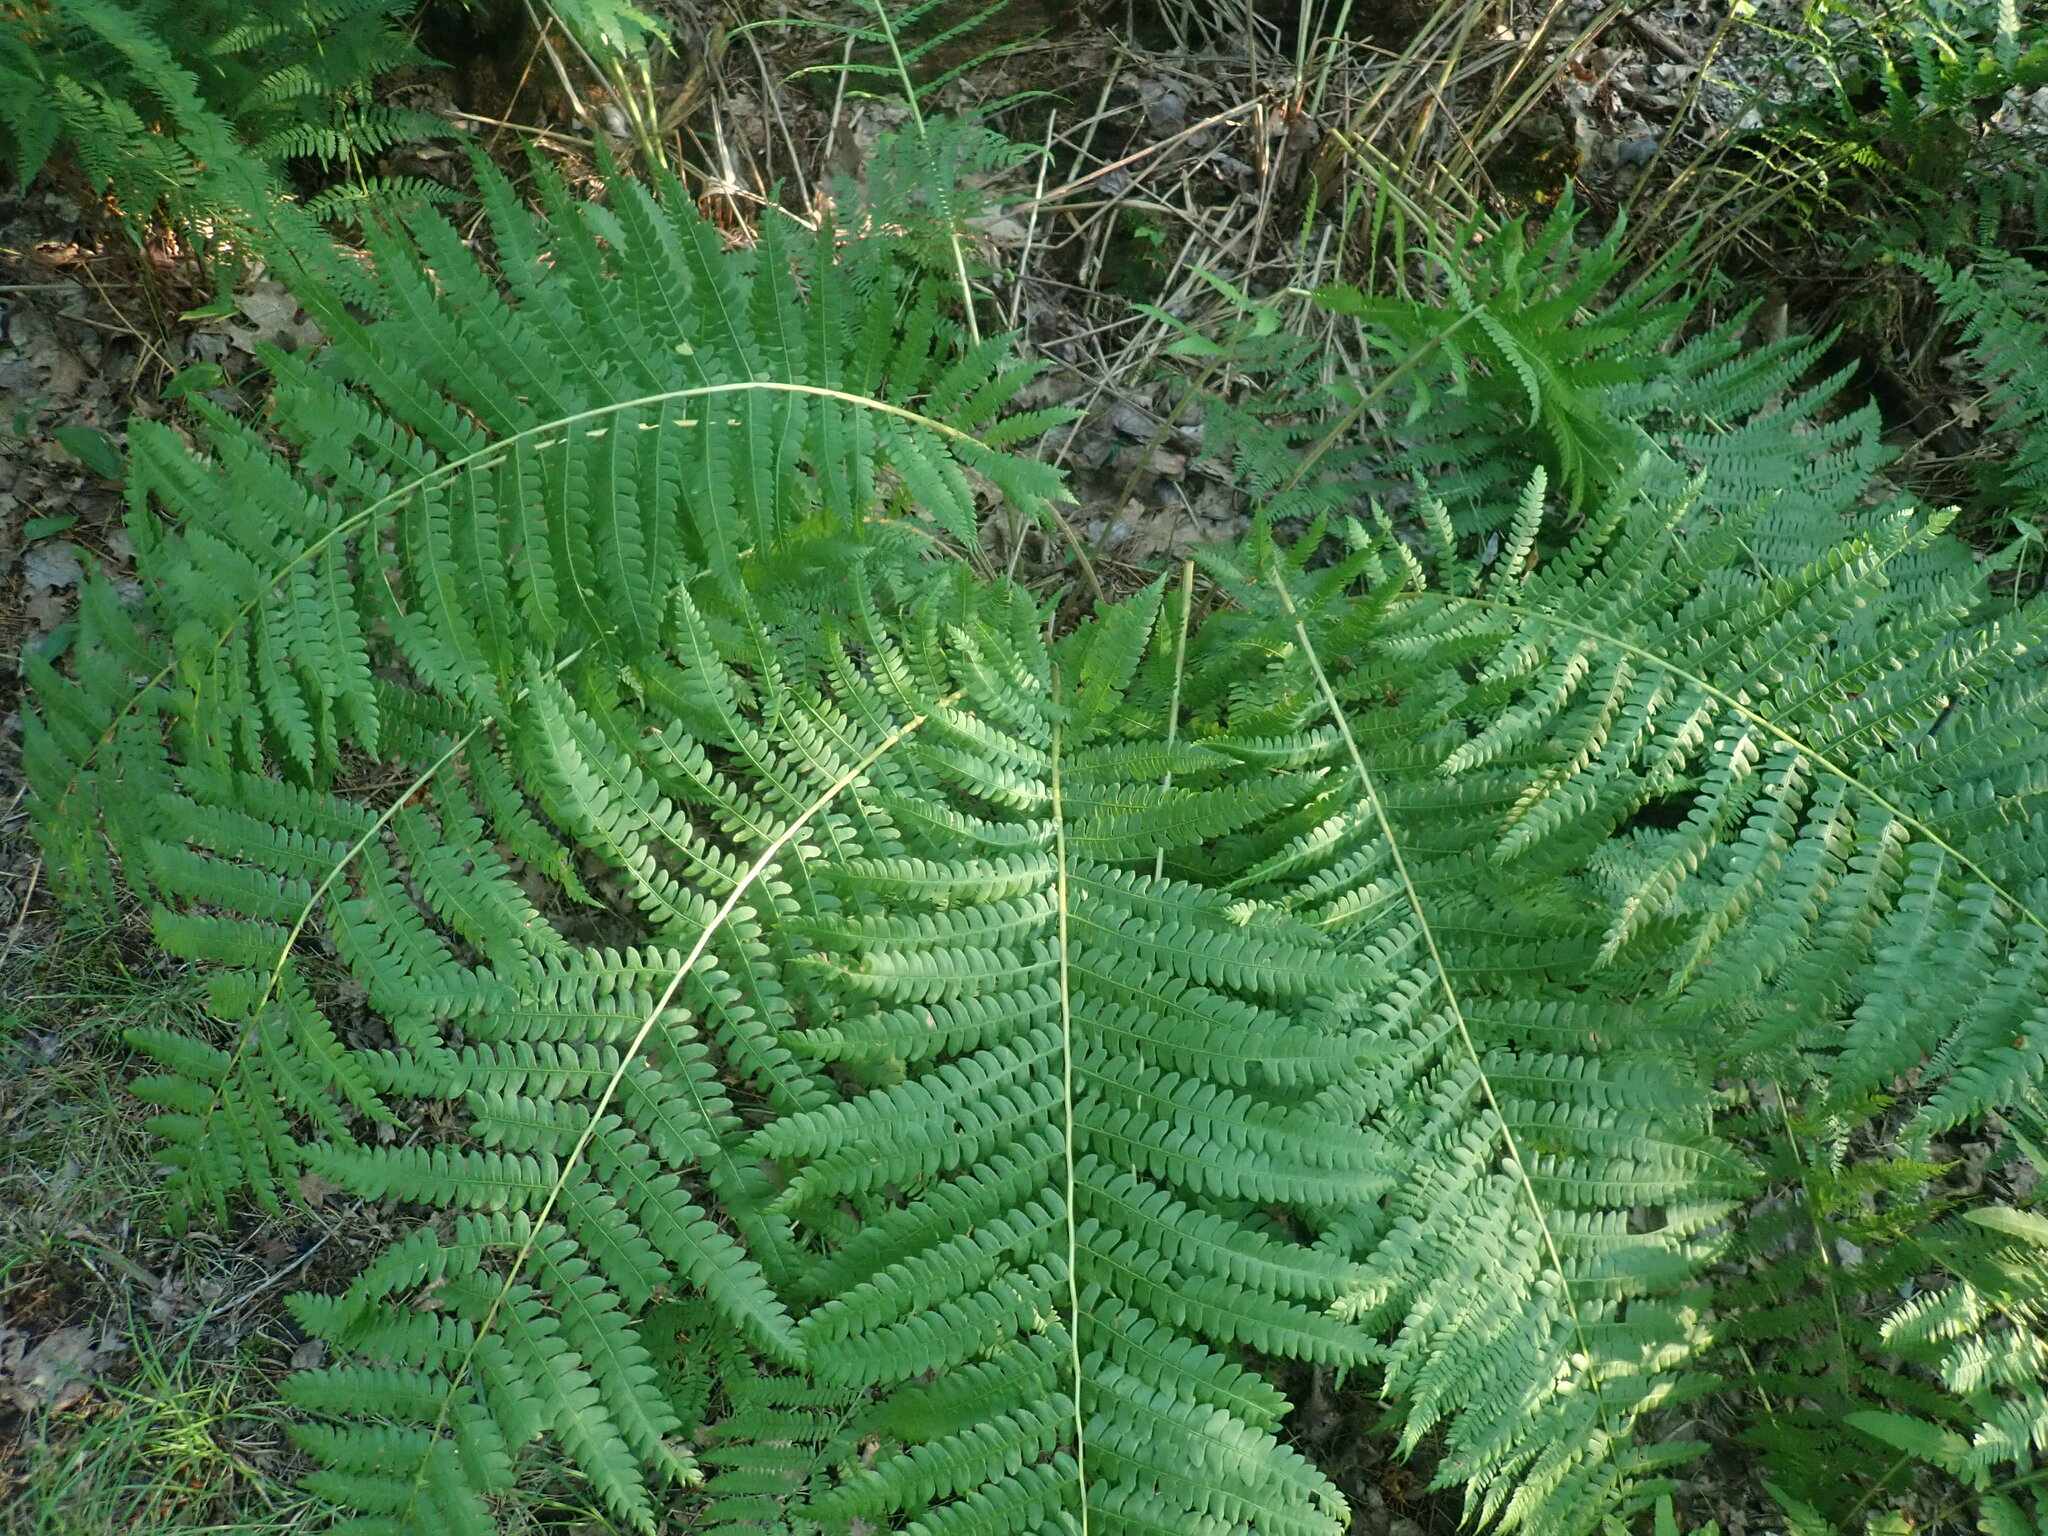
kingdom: Plantae
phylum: Tracheophyta
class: Polypodiopsida
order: Osmundales
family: Osmundaceae
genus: Osmundastrum
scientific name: Osmundastrum cinnamomeum
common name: Cinnamon fern
